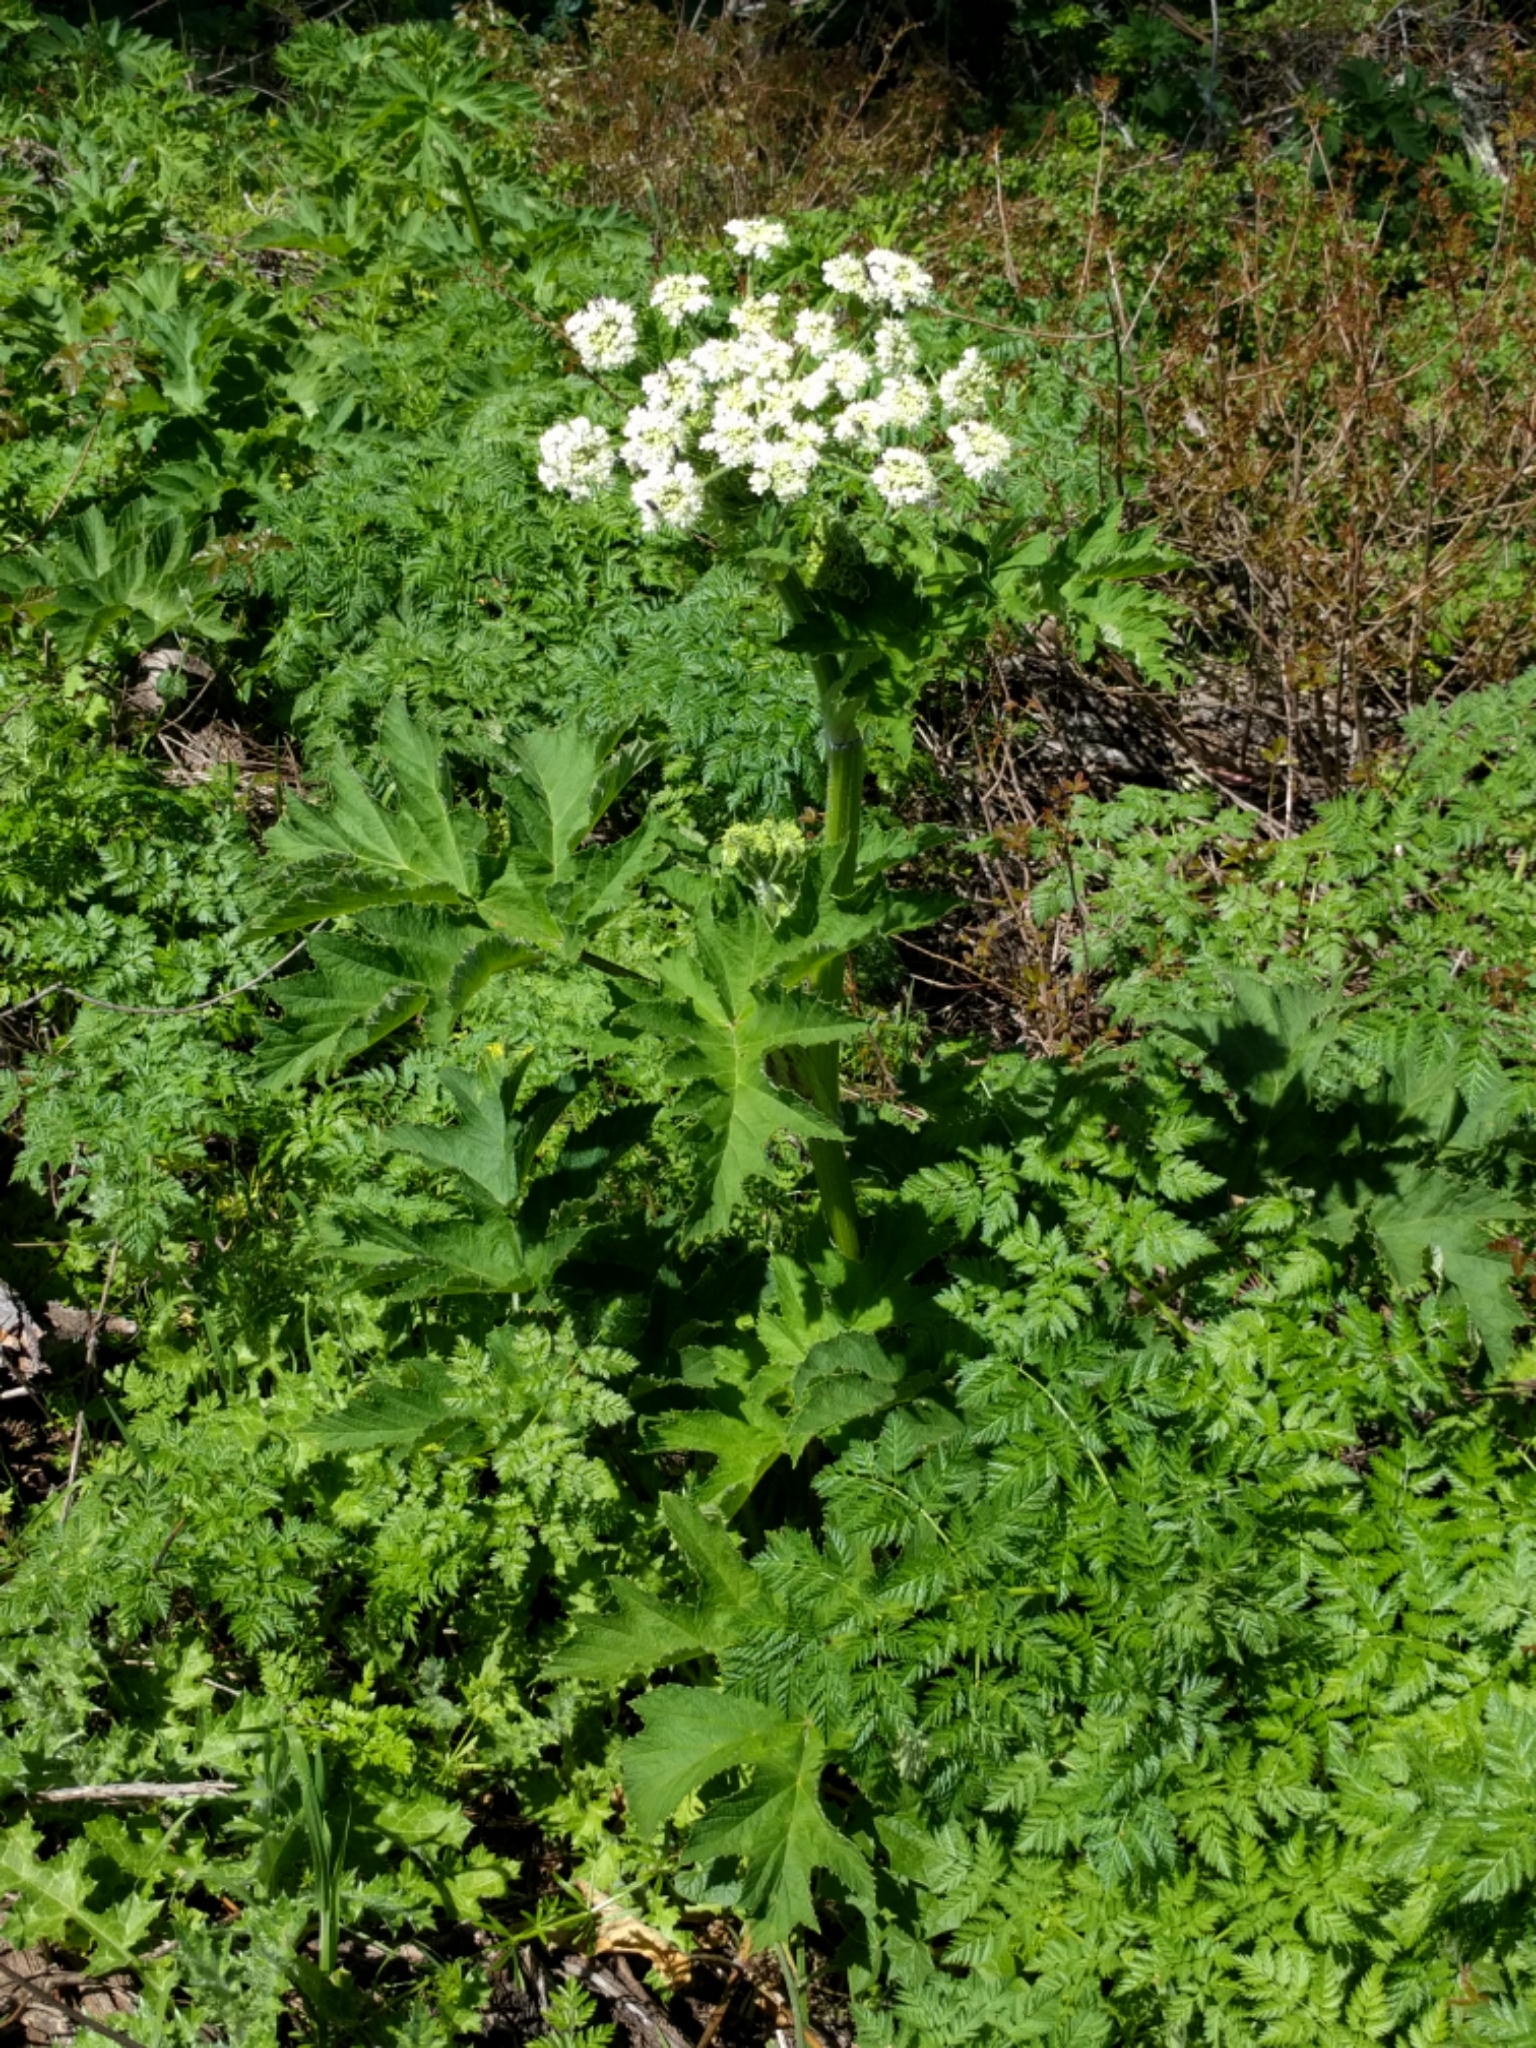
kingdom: Plantae
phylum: Tracheophyta
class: Magnoliopsida
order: Apiales
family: Apiaceae
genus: Heracleum
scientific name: Heracleum maximum
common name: American cow parsnip
